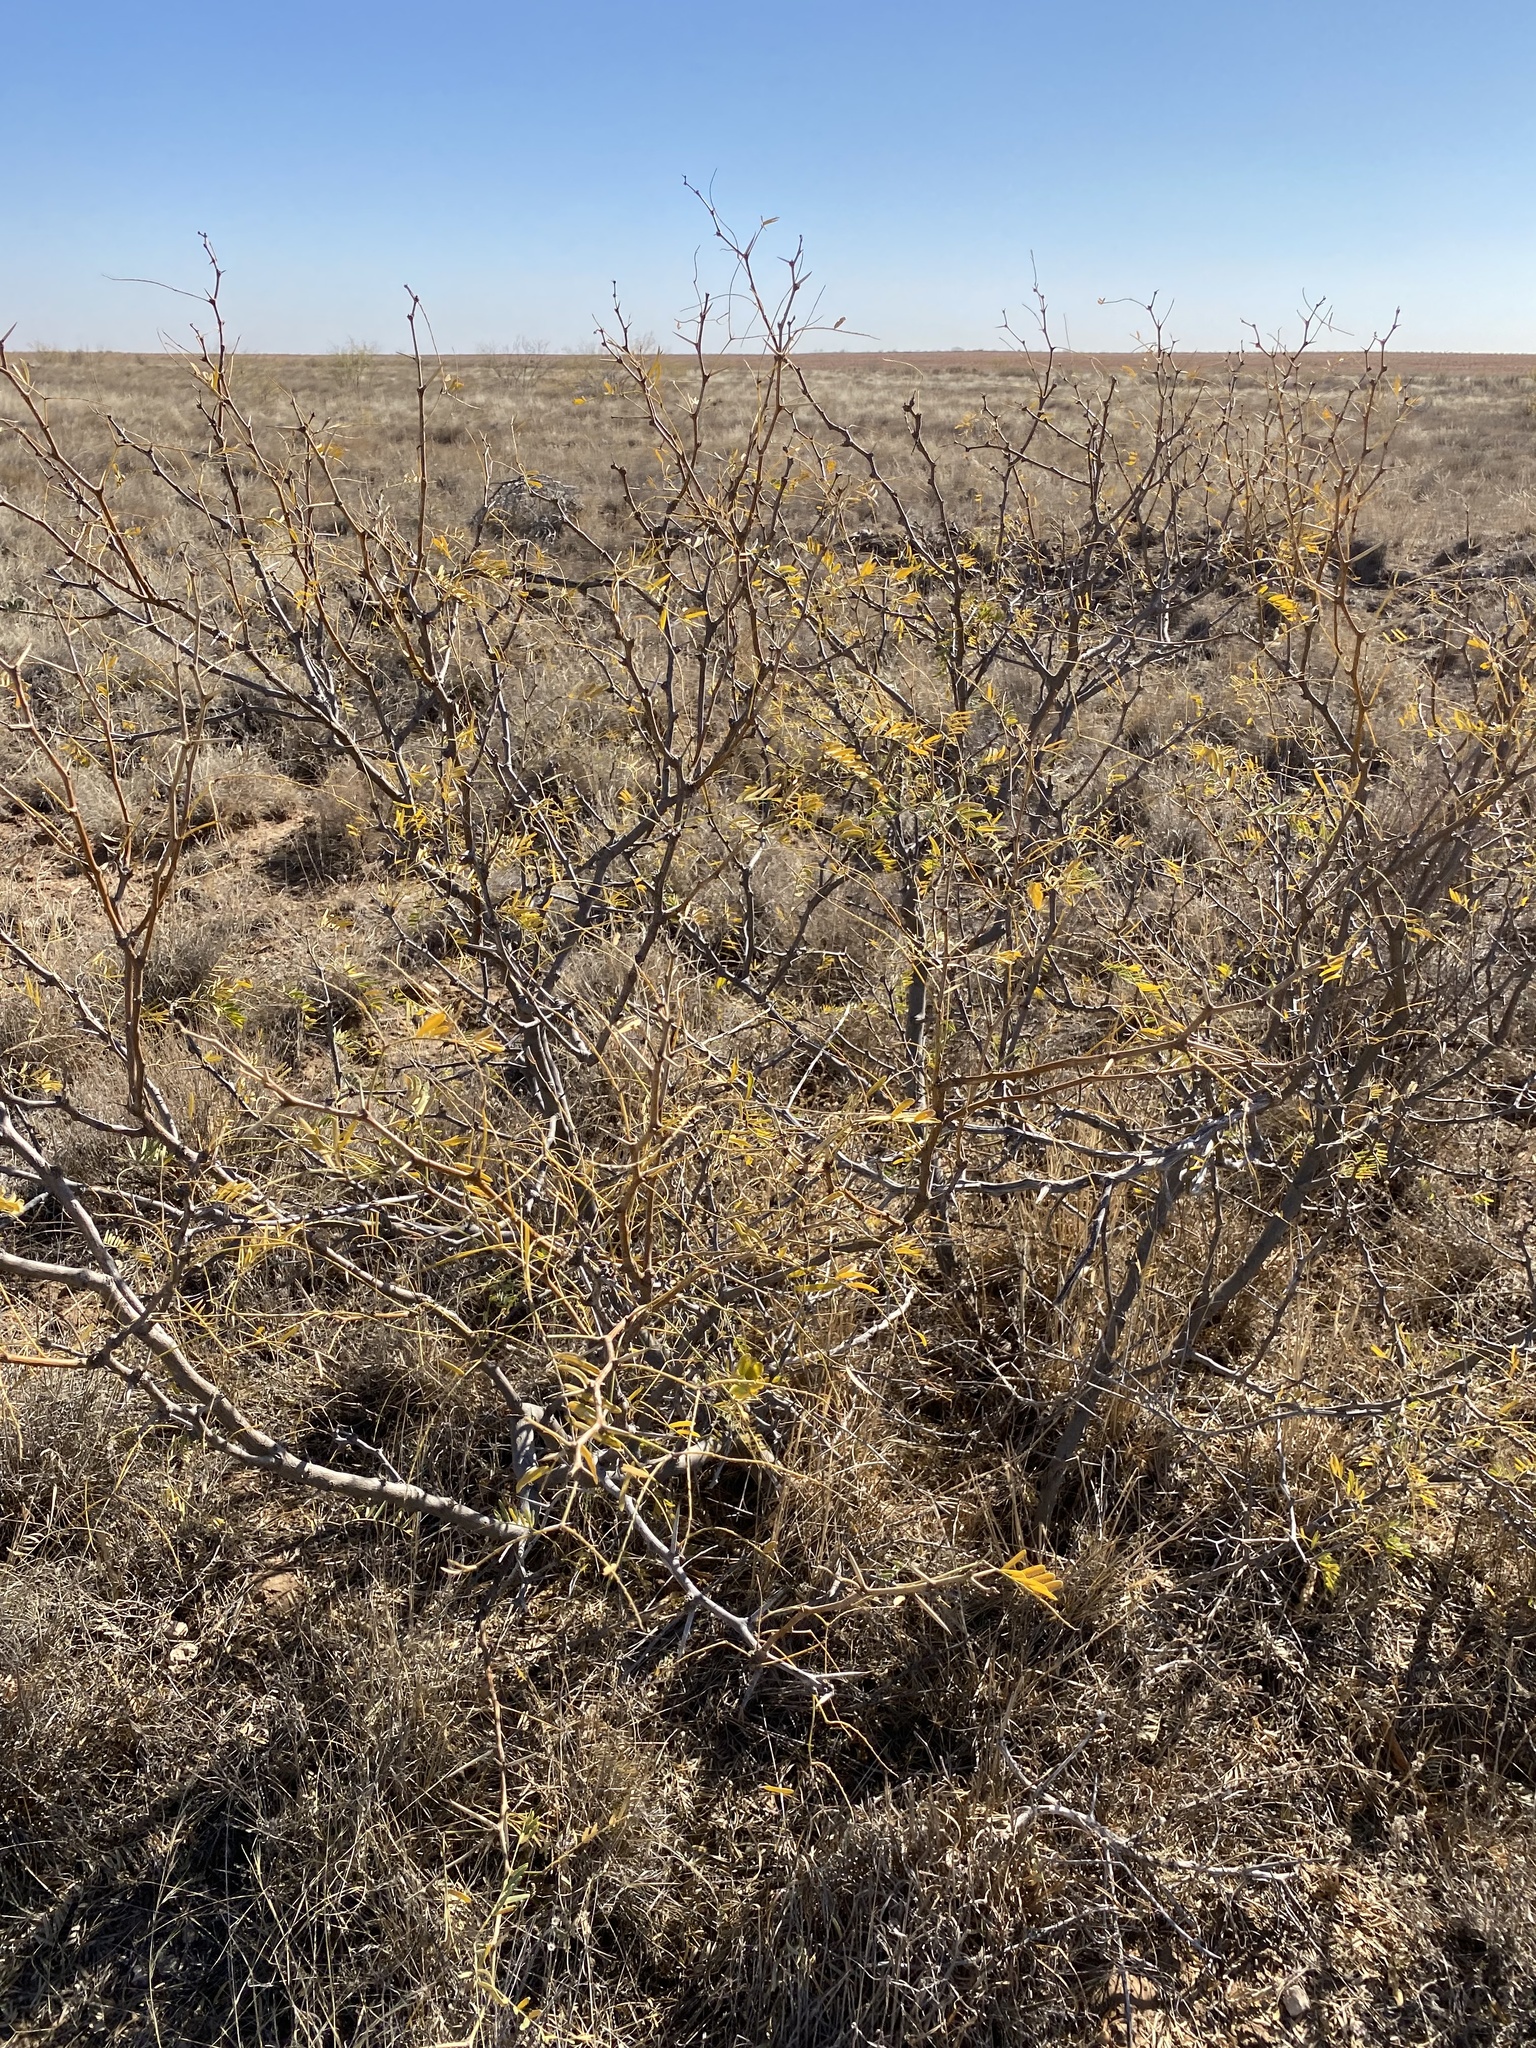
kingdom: Plantae
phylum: Tracheophyta
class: Magnoliopsida
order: Fabales
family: Fabaceae
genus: Prosopis
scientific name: Prosopis glandulosa
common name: Honey mesquite
